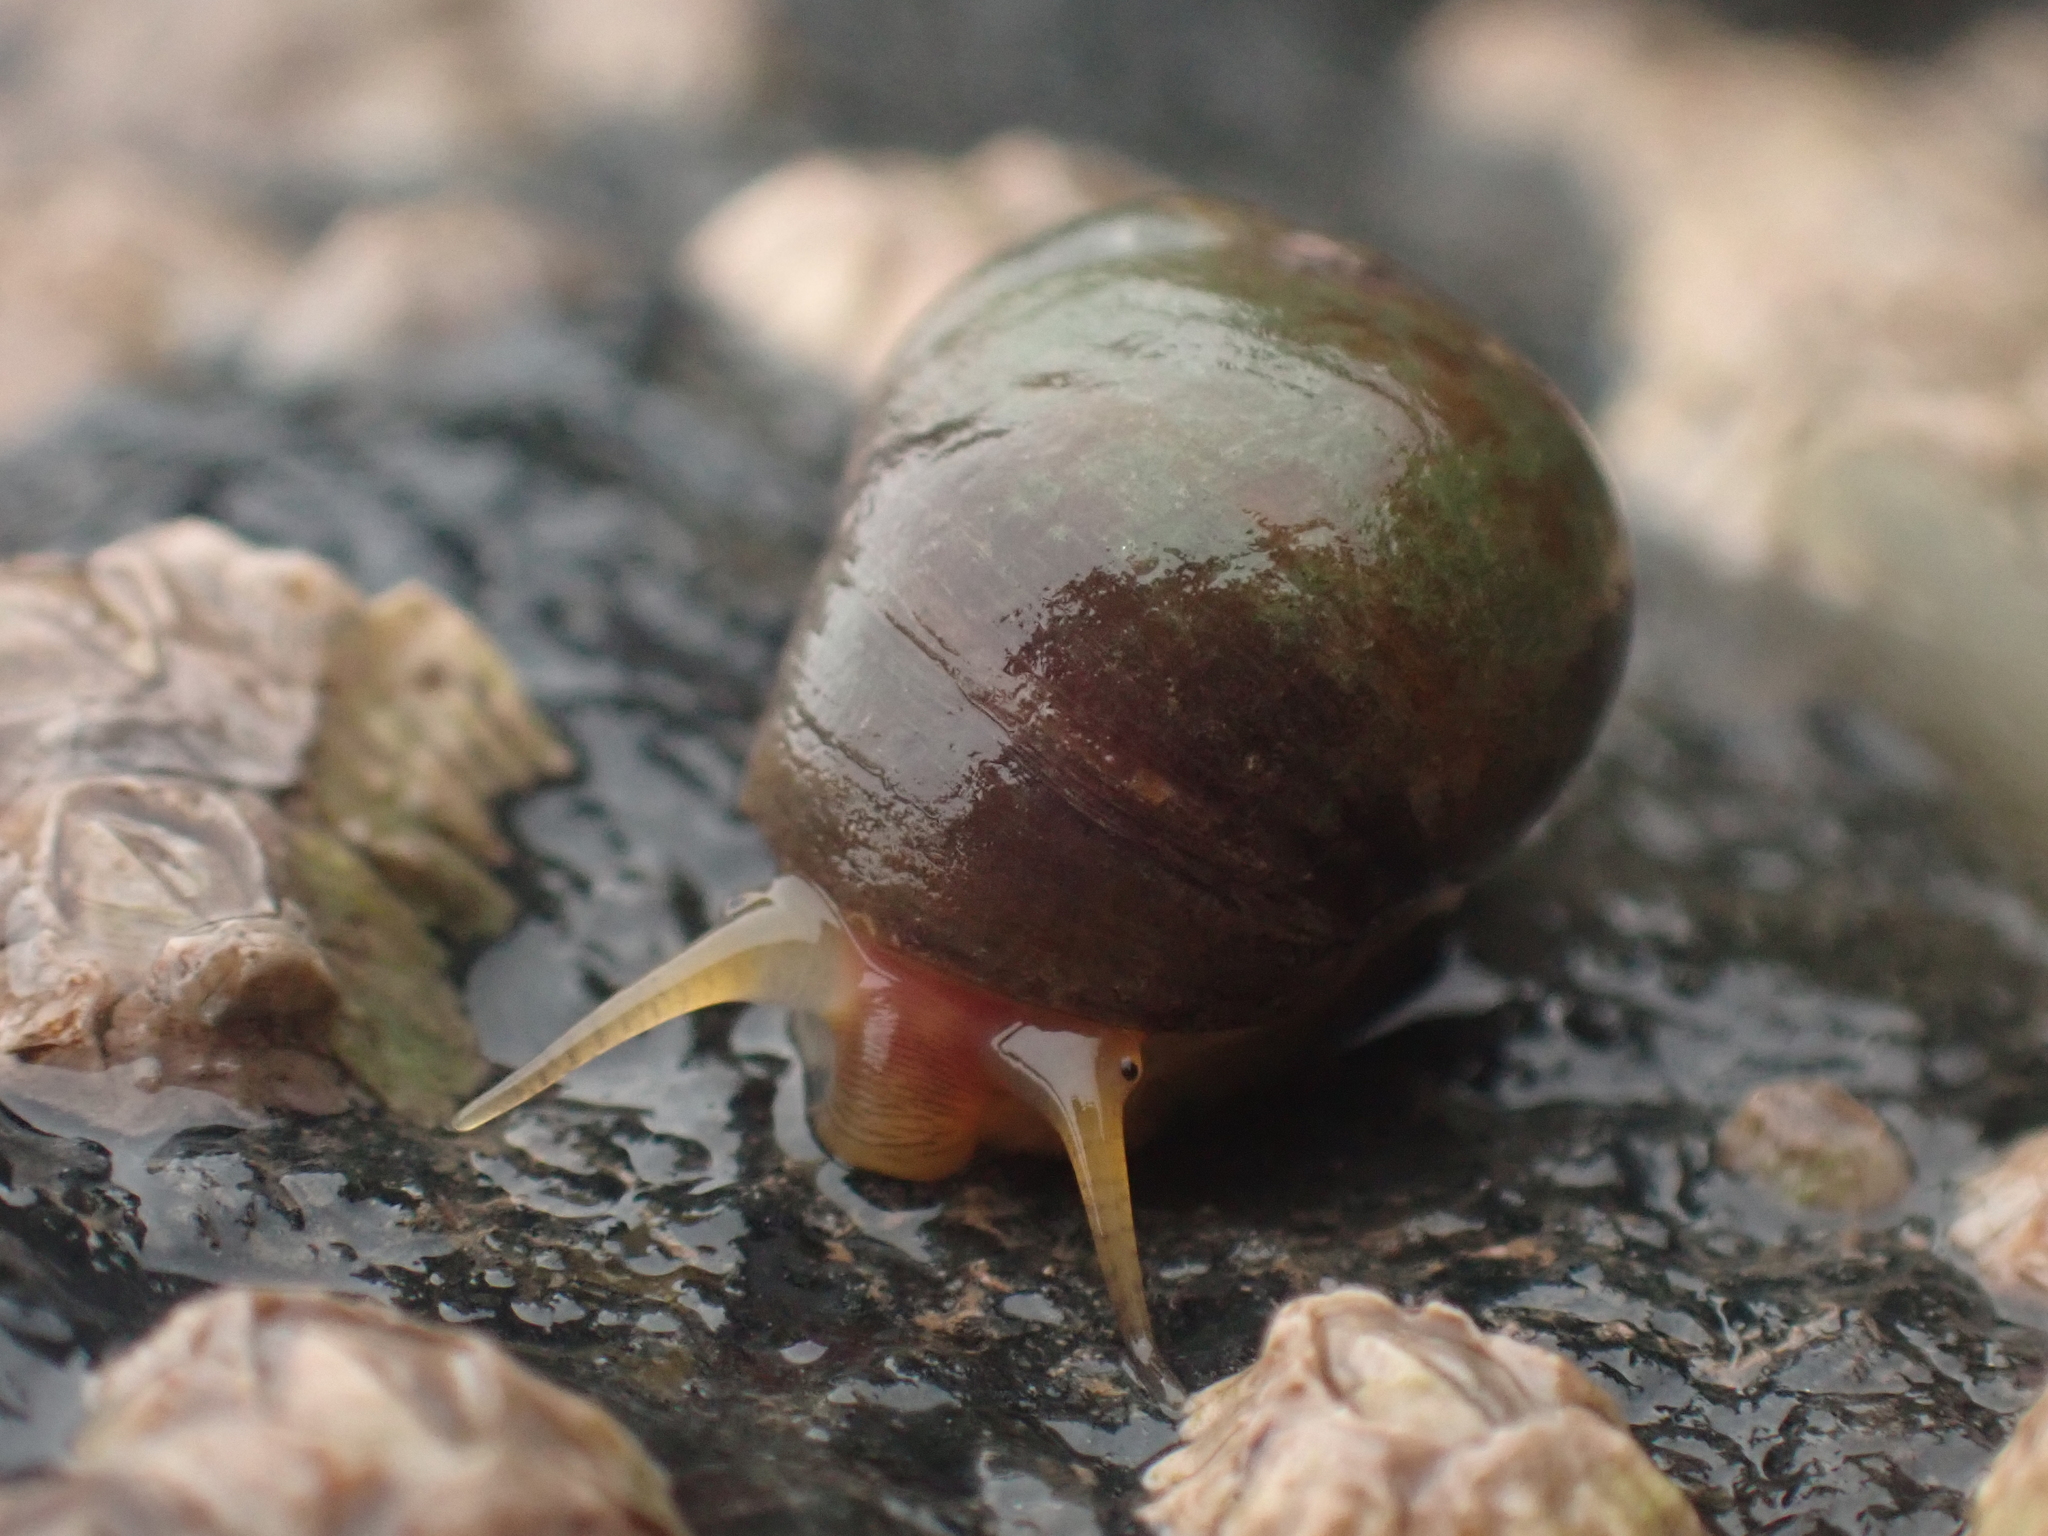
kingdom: Animalia
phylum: Mollusca
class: Gastropoda
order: Littorinimorpha
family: Littorinidae
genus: Littorina
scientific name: Littorina obtusata
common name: Flat periwinkle
